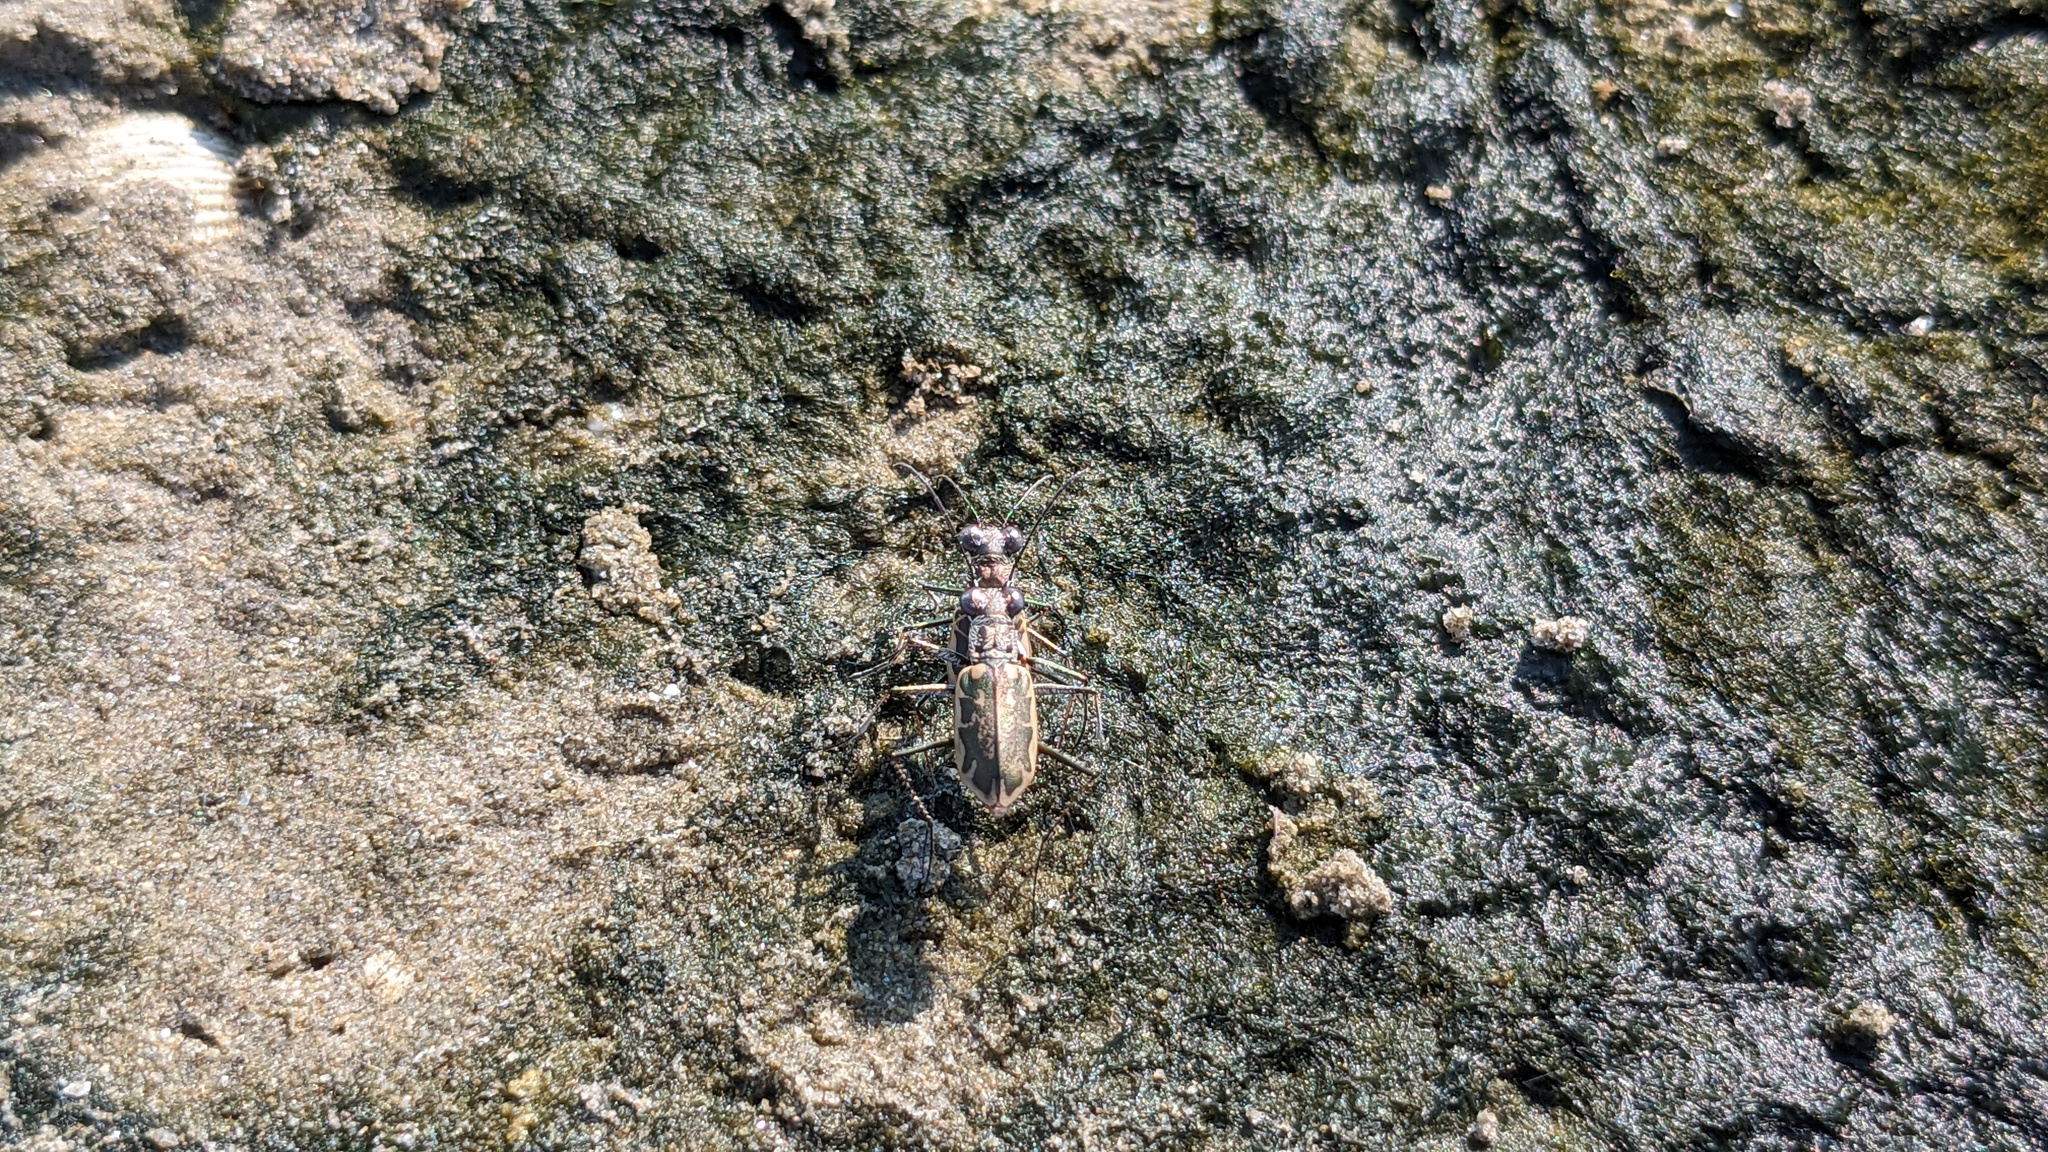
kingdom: Animalia
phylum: Arthropoda
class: Insecta
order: Coleoptera
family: Carabidae
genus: Ellipsoptera
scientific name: Ellipsoptera hamata
